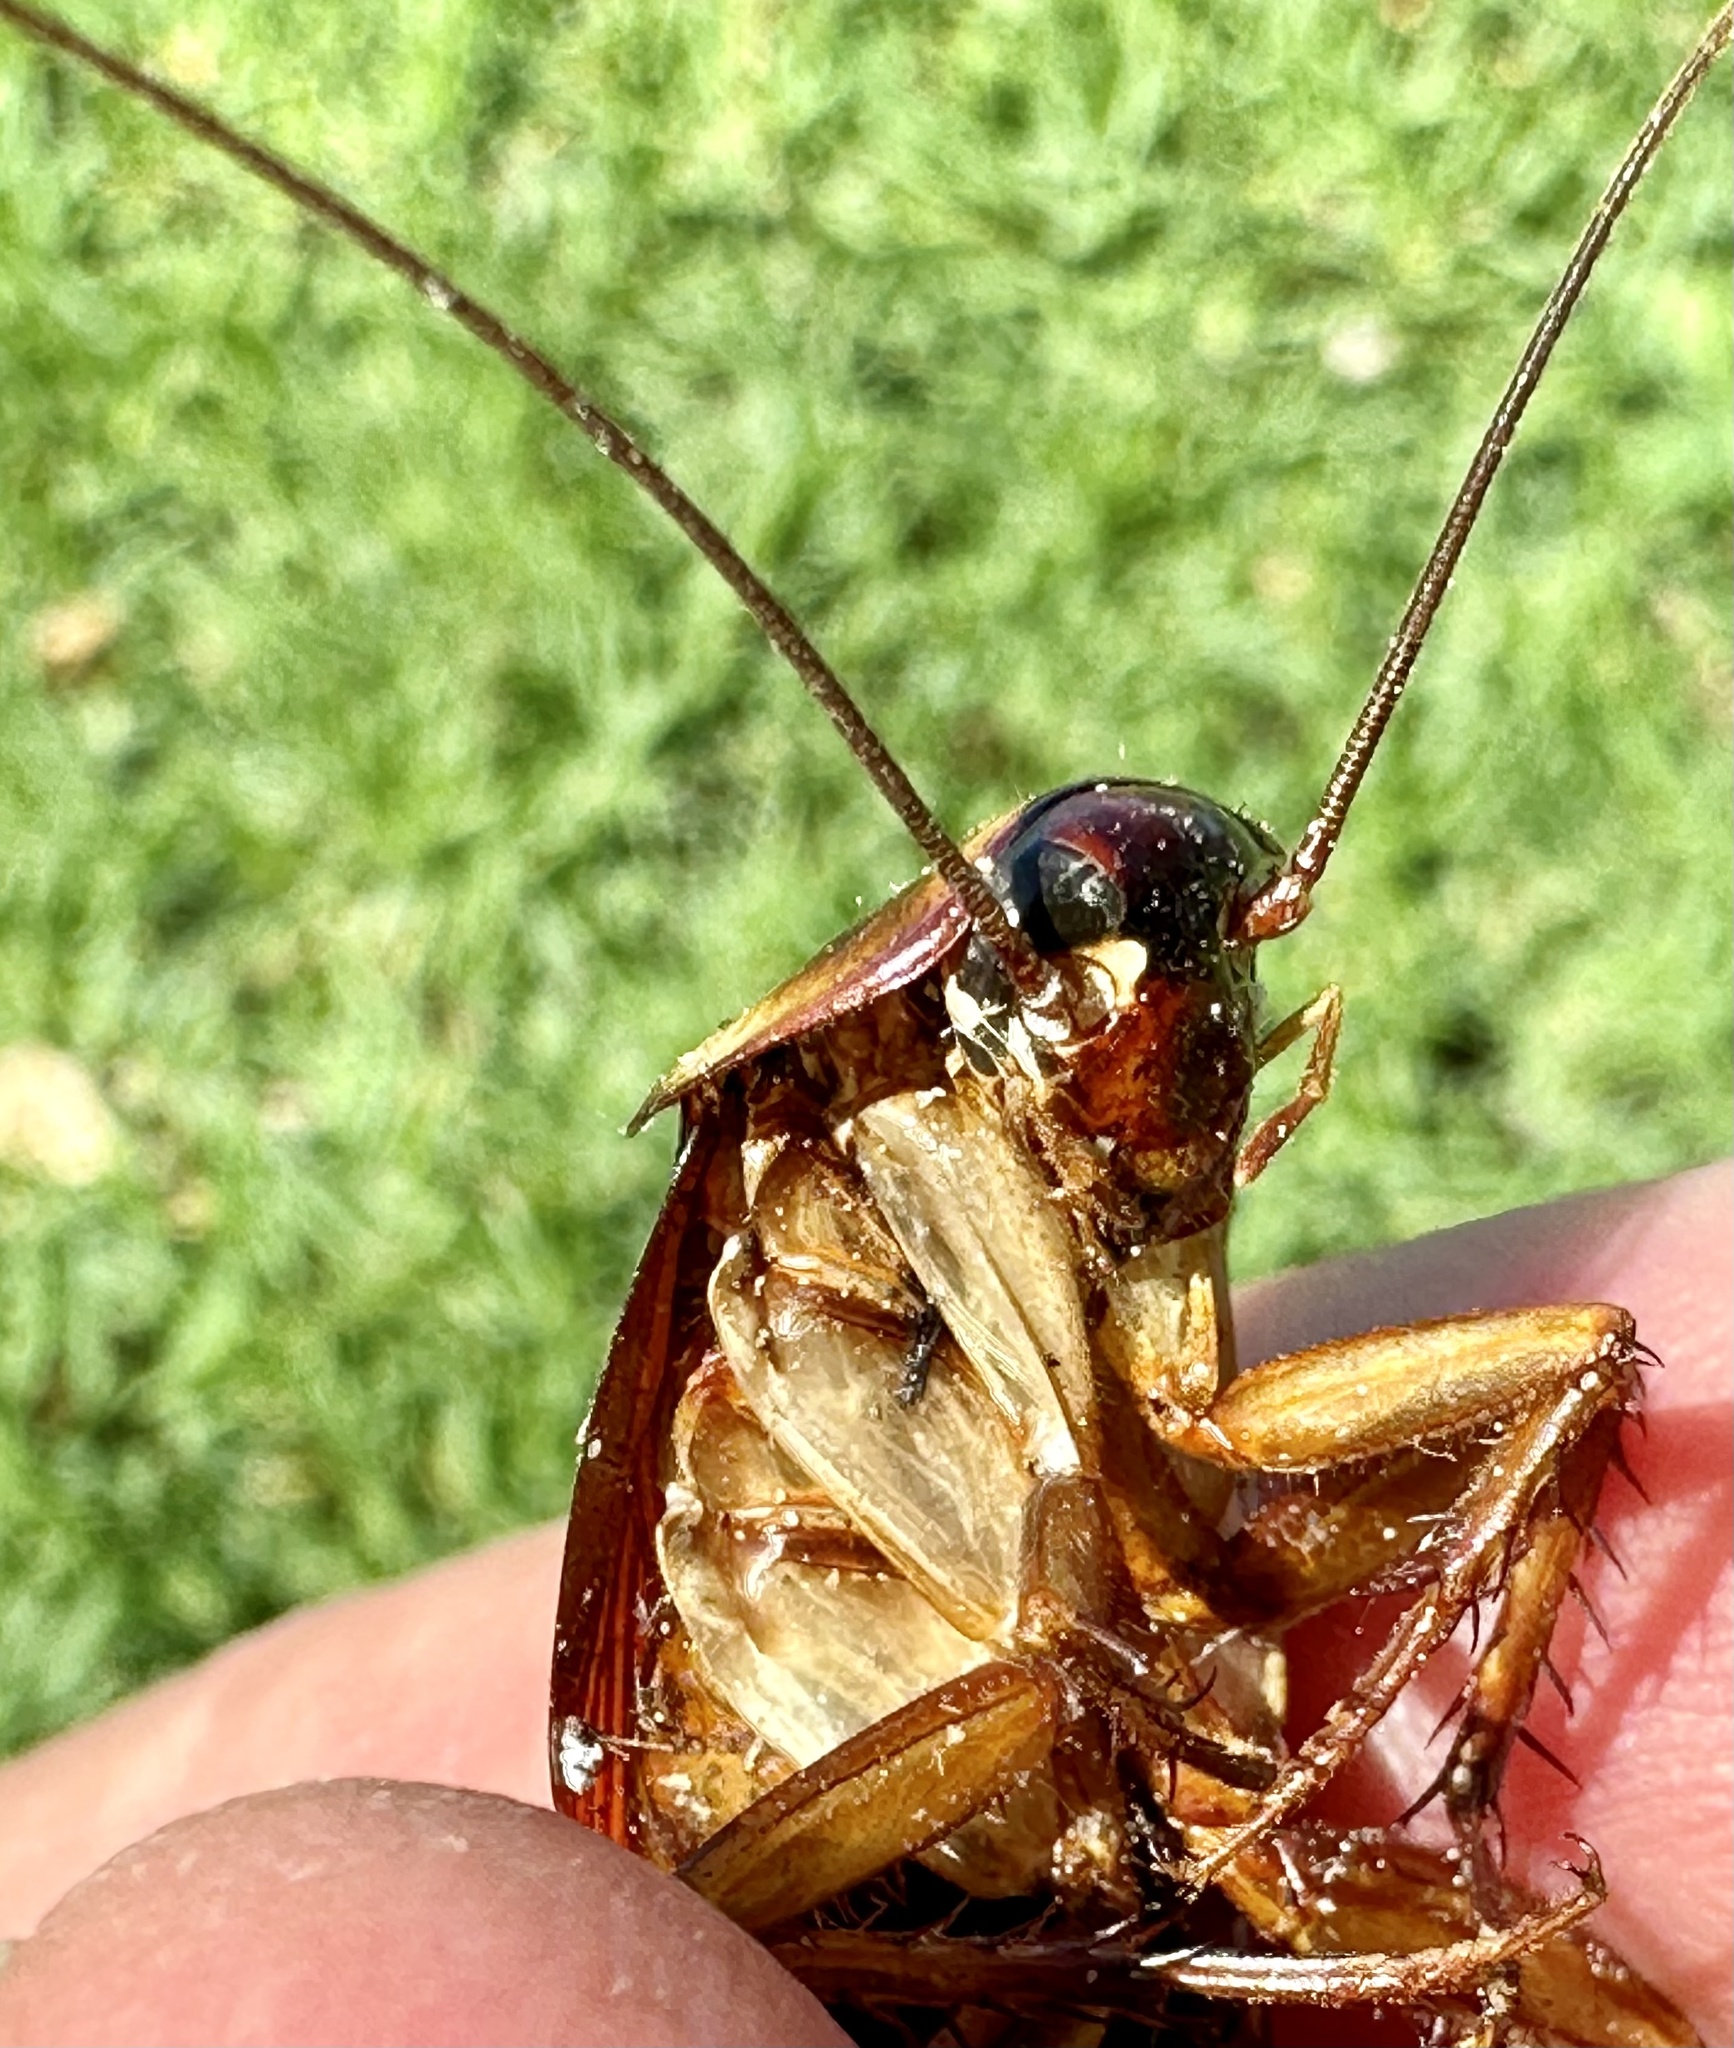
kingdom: Animalia
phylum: Arthropoda
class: Insecta
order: Blattodea
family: Blattidae
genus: Periplaneta
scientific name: Periplaneta americana
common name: American cockroach
